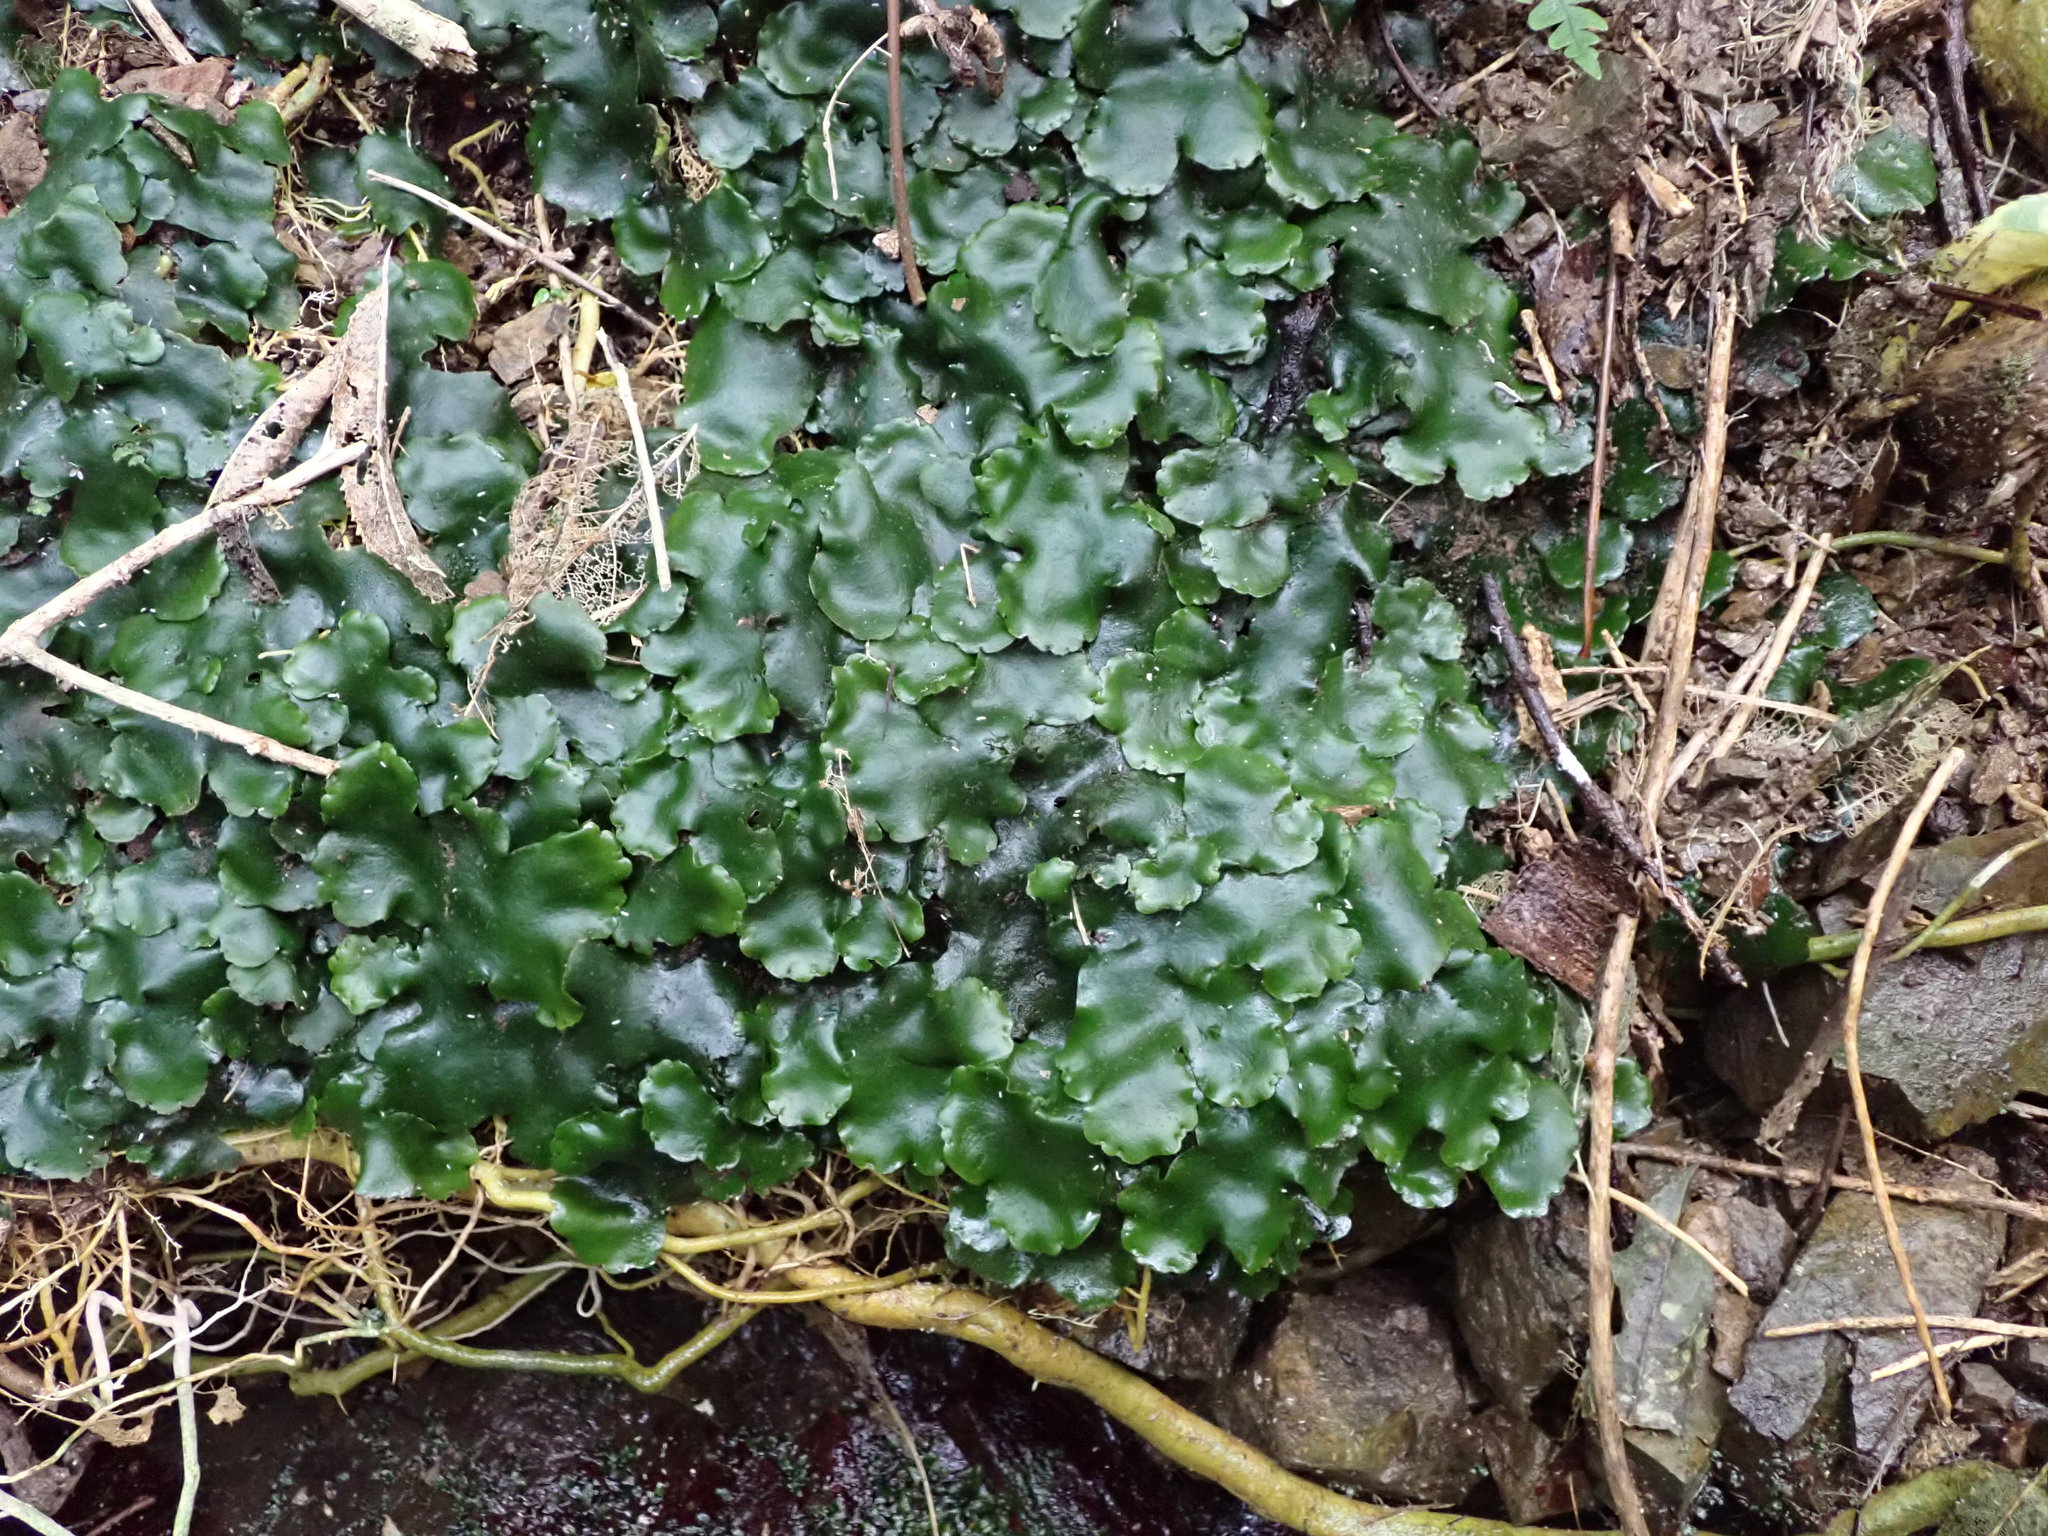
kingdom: Plantae
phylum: Marchantiophyta
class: Marchantiopsida
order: Marchantiales
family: Monocleaceae
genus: Monoclea
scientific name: Monoclea forsteri
